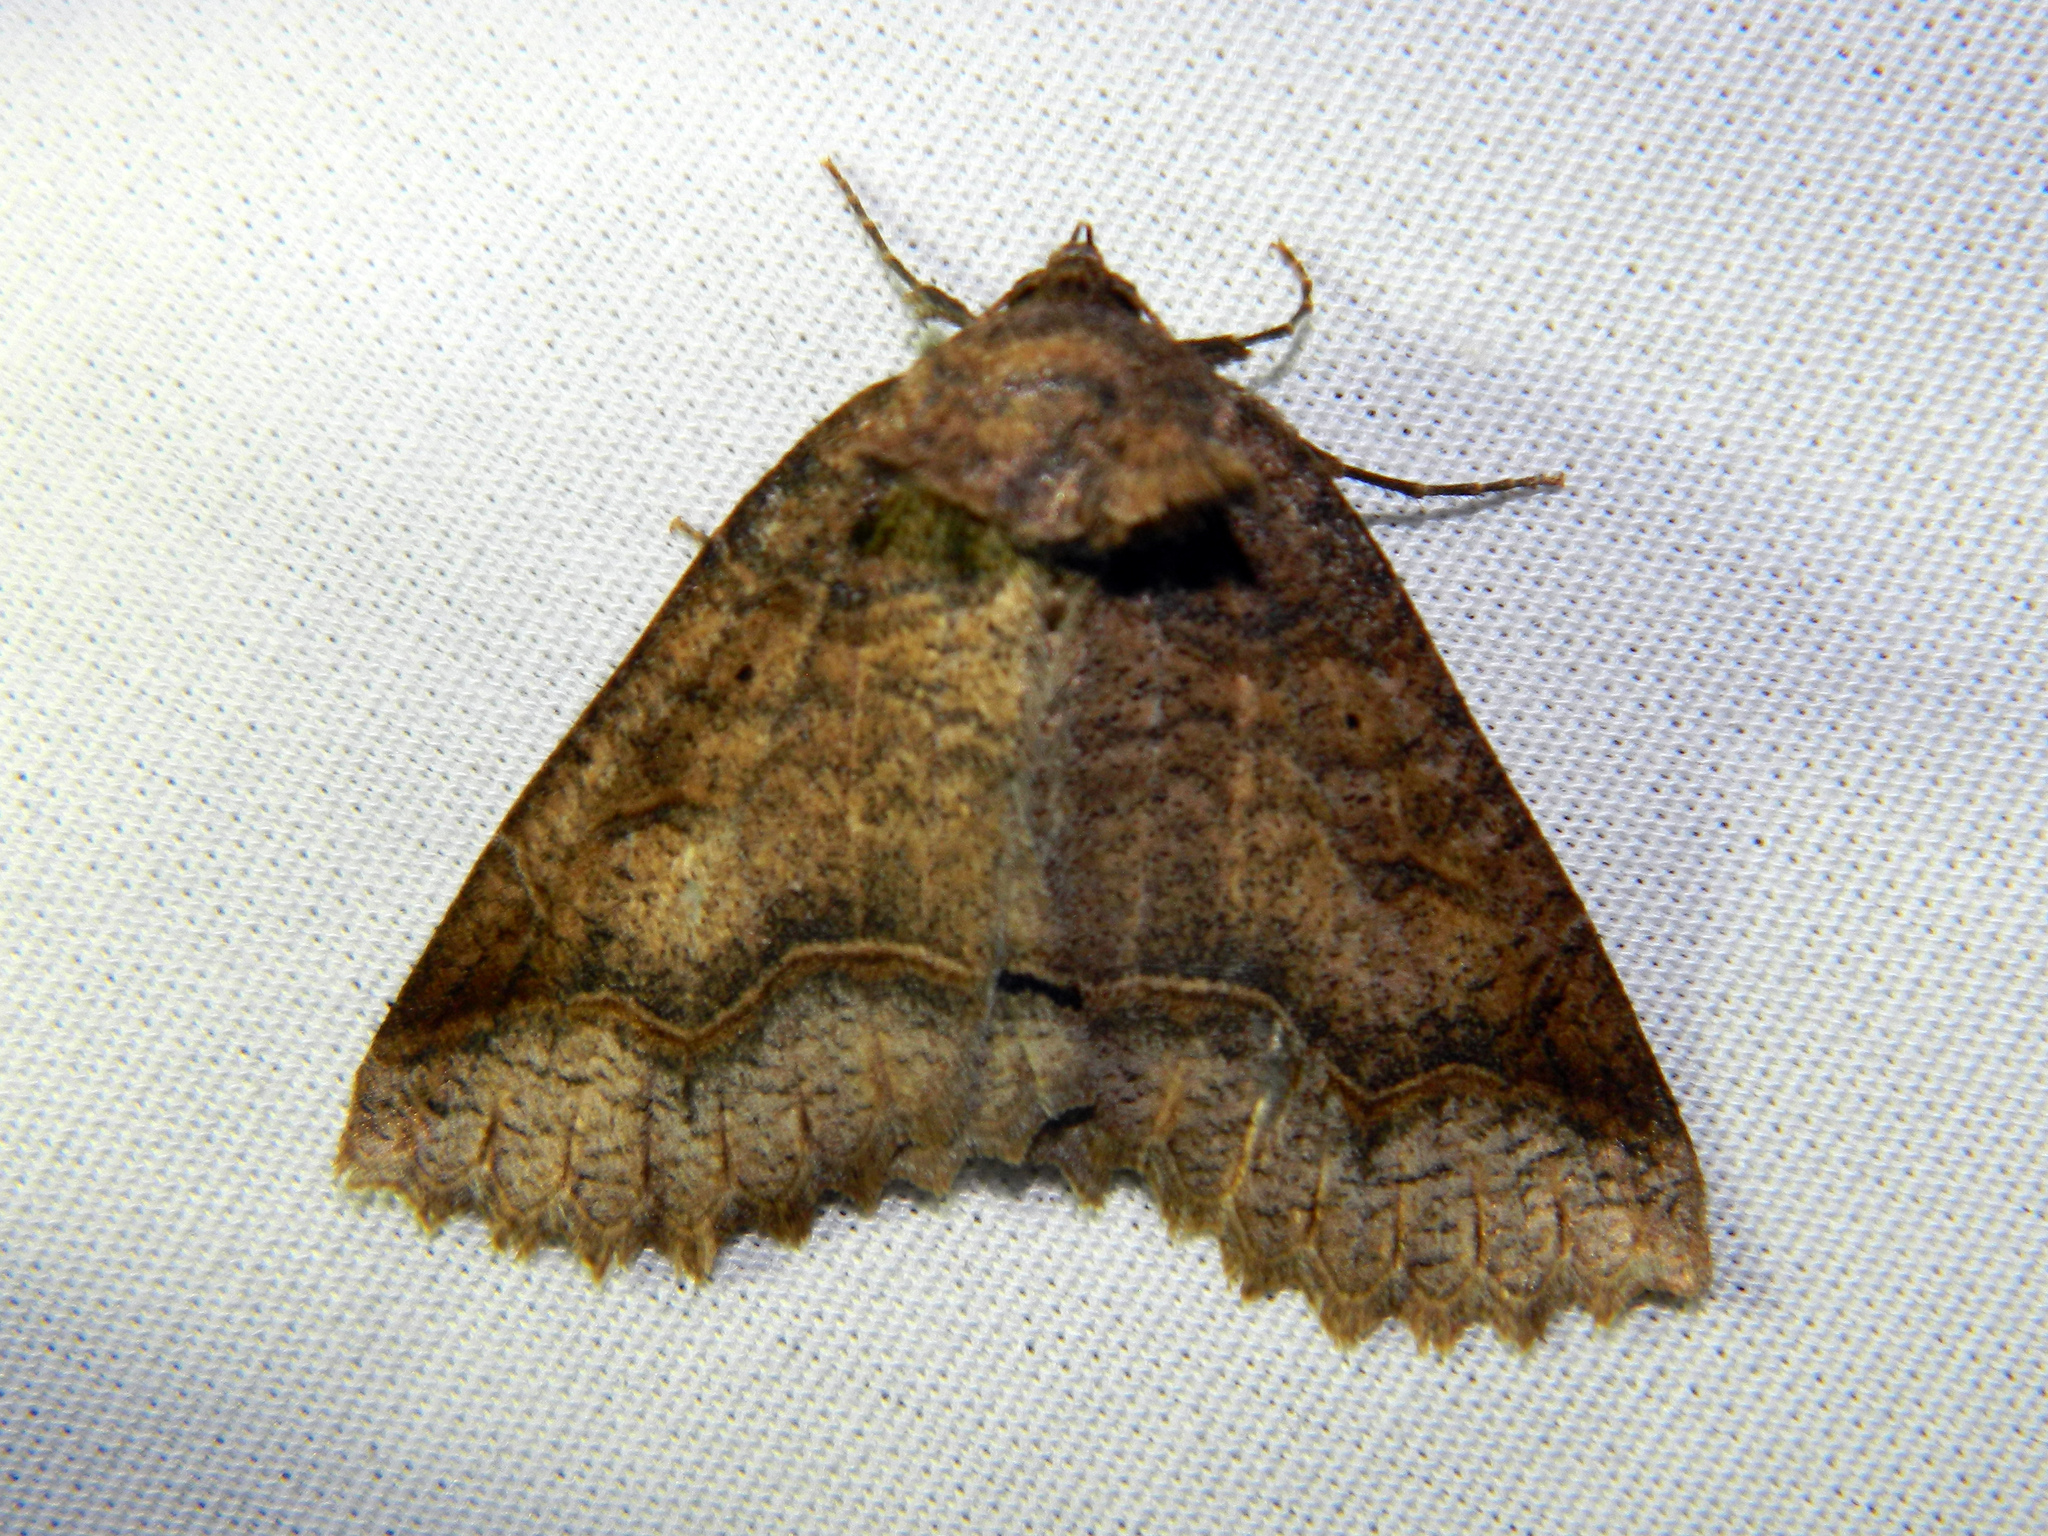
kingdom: Animalia
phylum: Arthropoda
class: Insecta
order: Lepidoptera
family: Erebidae
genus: Zale
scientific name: Zale unilineata
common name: One-lined zale moth
